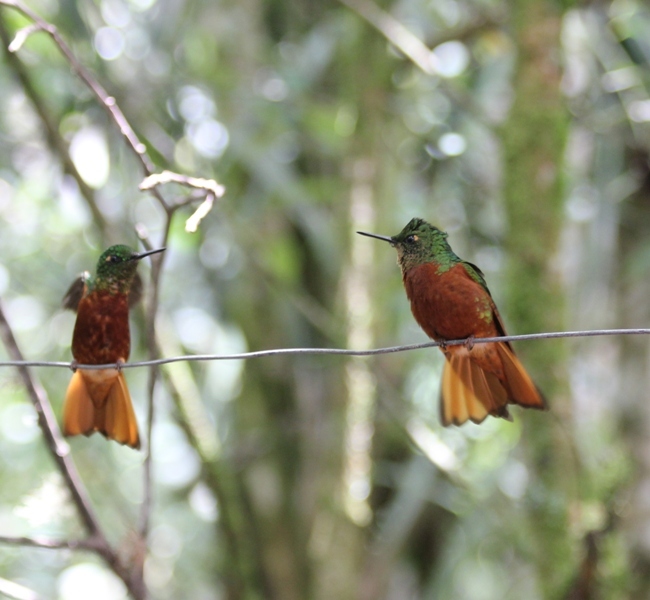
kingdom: Animalia
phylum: Chordata
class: Aves
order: Apodiformes
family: Trochilidae
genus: Boissonneaua
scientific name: Boissonneaua matthewsii
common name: Chestnut-breasted coronet
